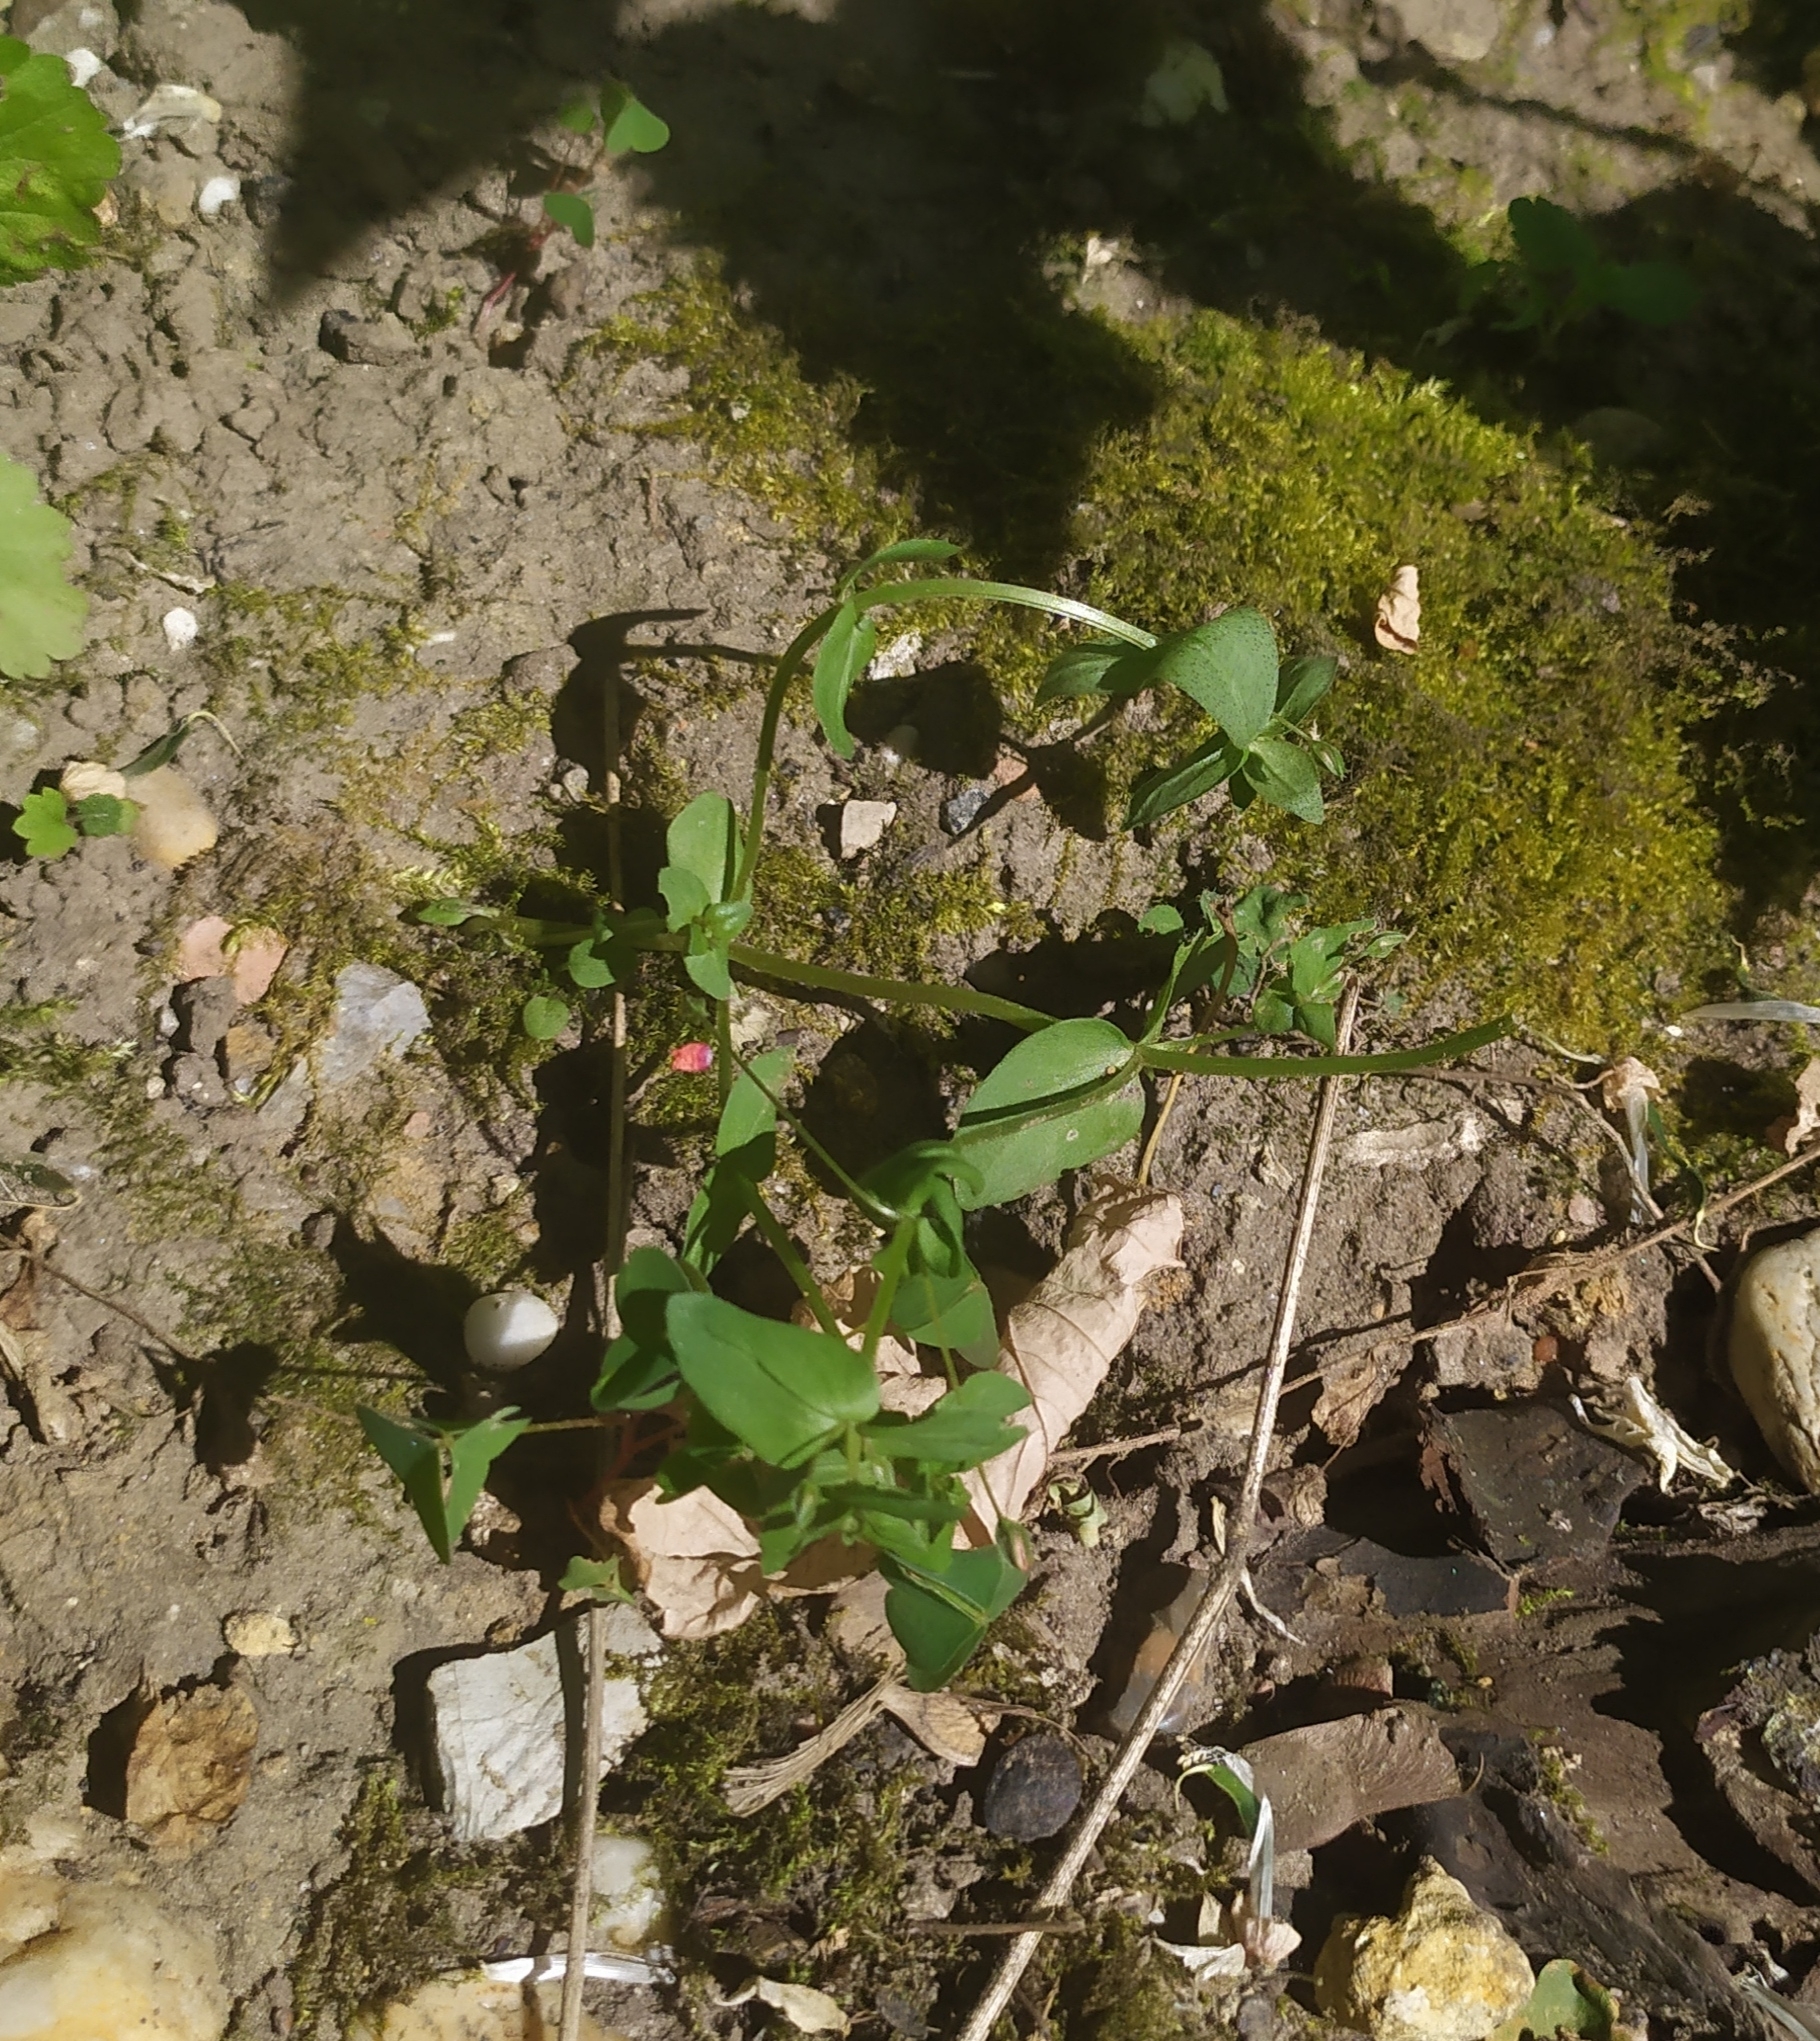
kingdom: Plantae
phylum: Tracheophyta
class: Magnoliopsida
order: Ericales
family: Primulaceae
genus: Lysimachia
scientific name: Lysimachia arvensis
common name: Scarlet pimpernel
